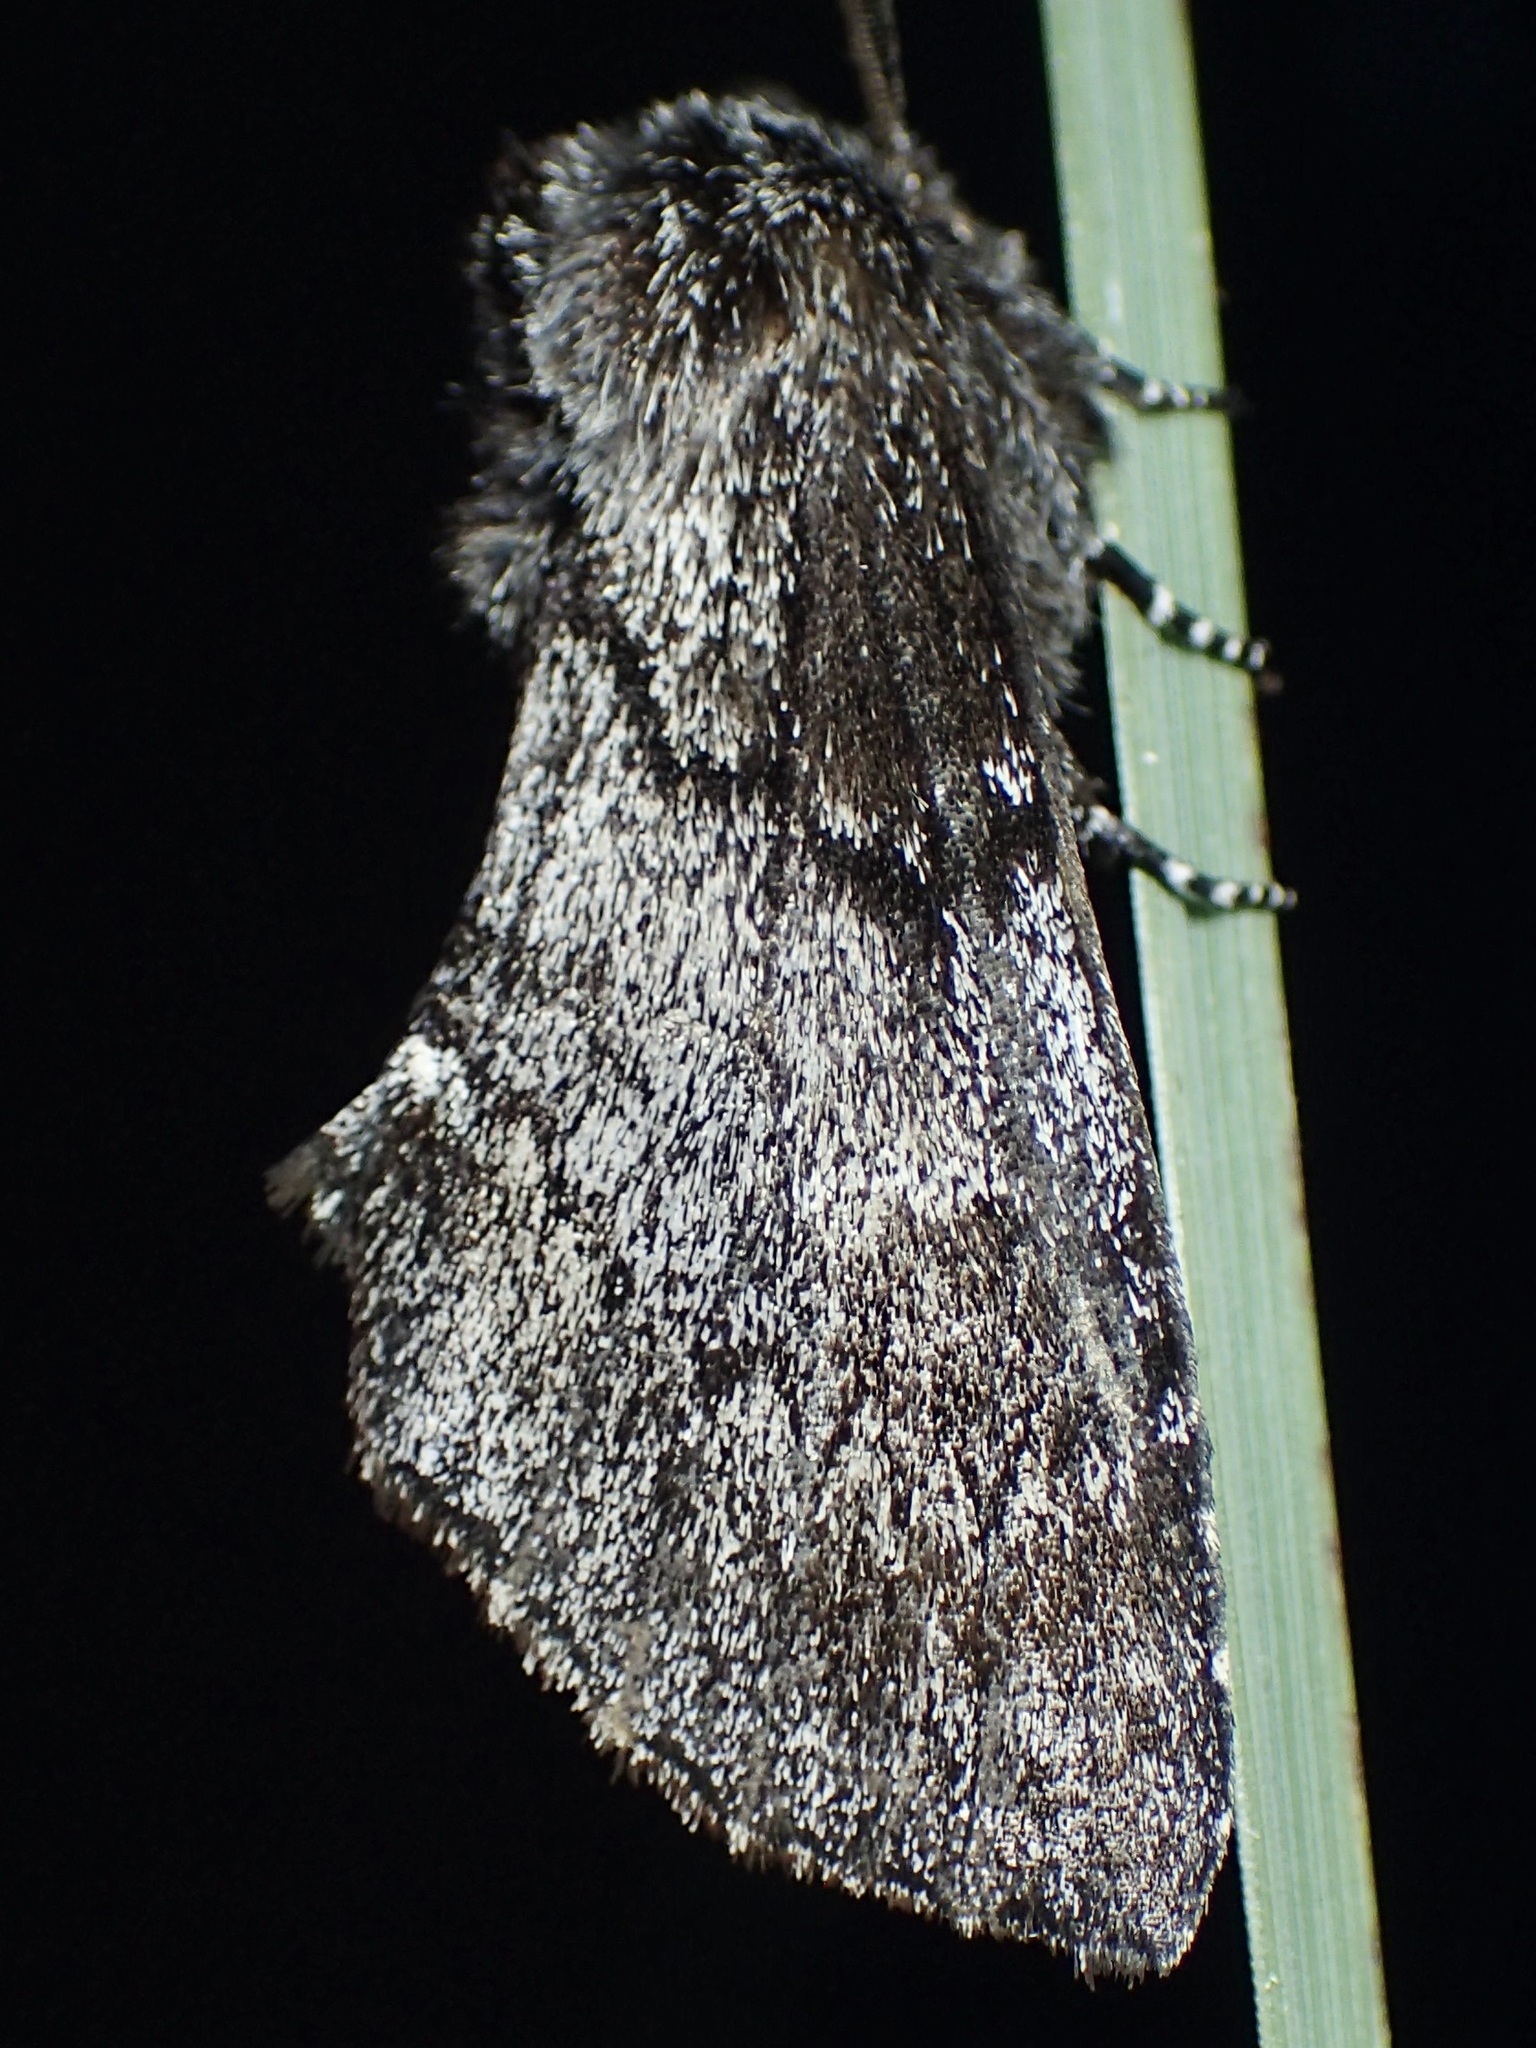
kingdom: Animalia
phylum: Arthropoda
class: Insecta
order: Lepidoptera
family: Notodontidae
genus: Cargida
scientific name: Cargida pyrrha
